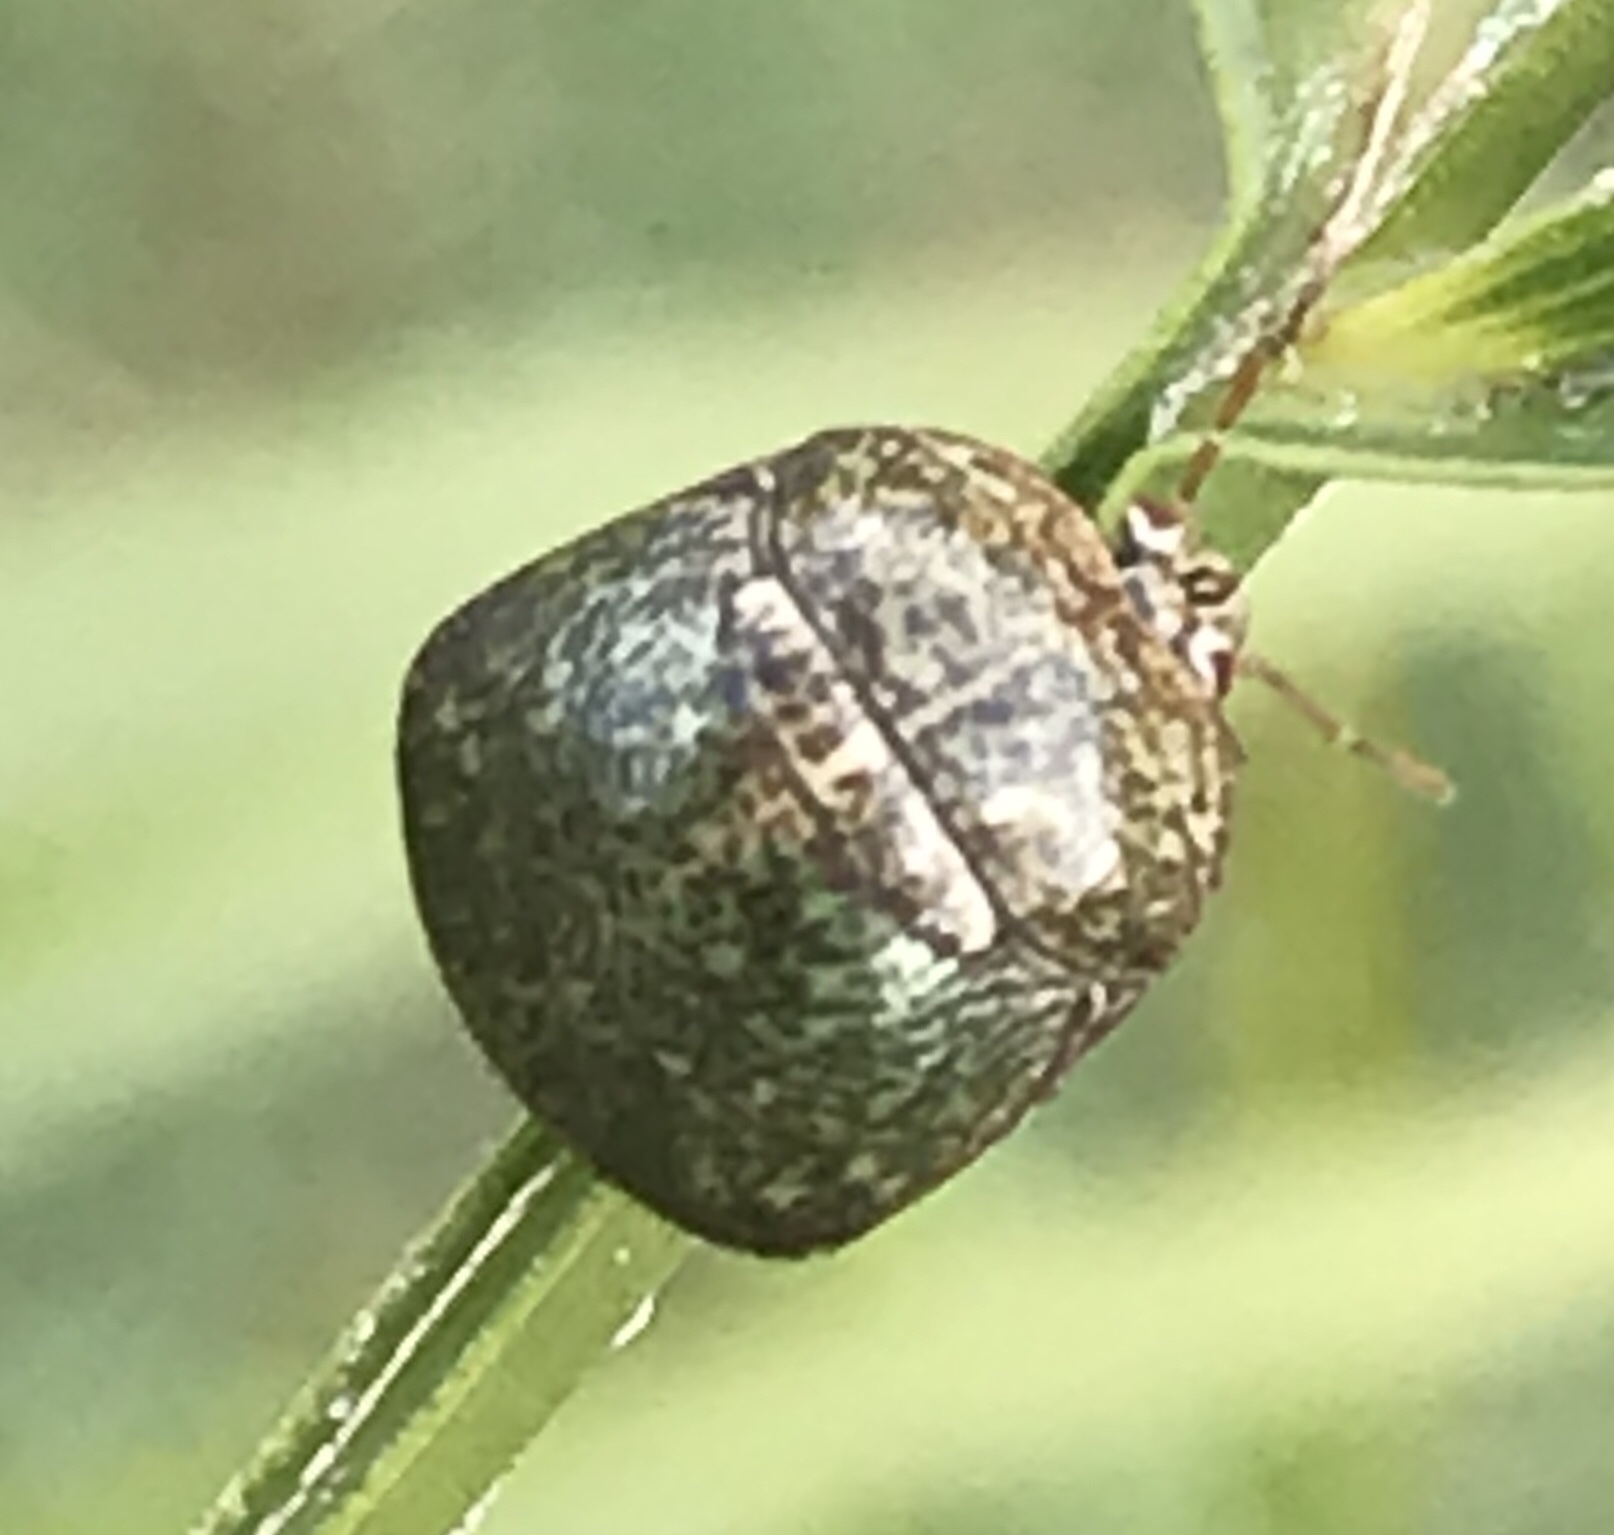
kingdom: Animalia
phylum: Arthropoda
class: Insecta
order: Hemiptera
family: Plataspidae
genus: Megacopta
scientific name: Megacopta cribraria
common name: Bean plataspid
